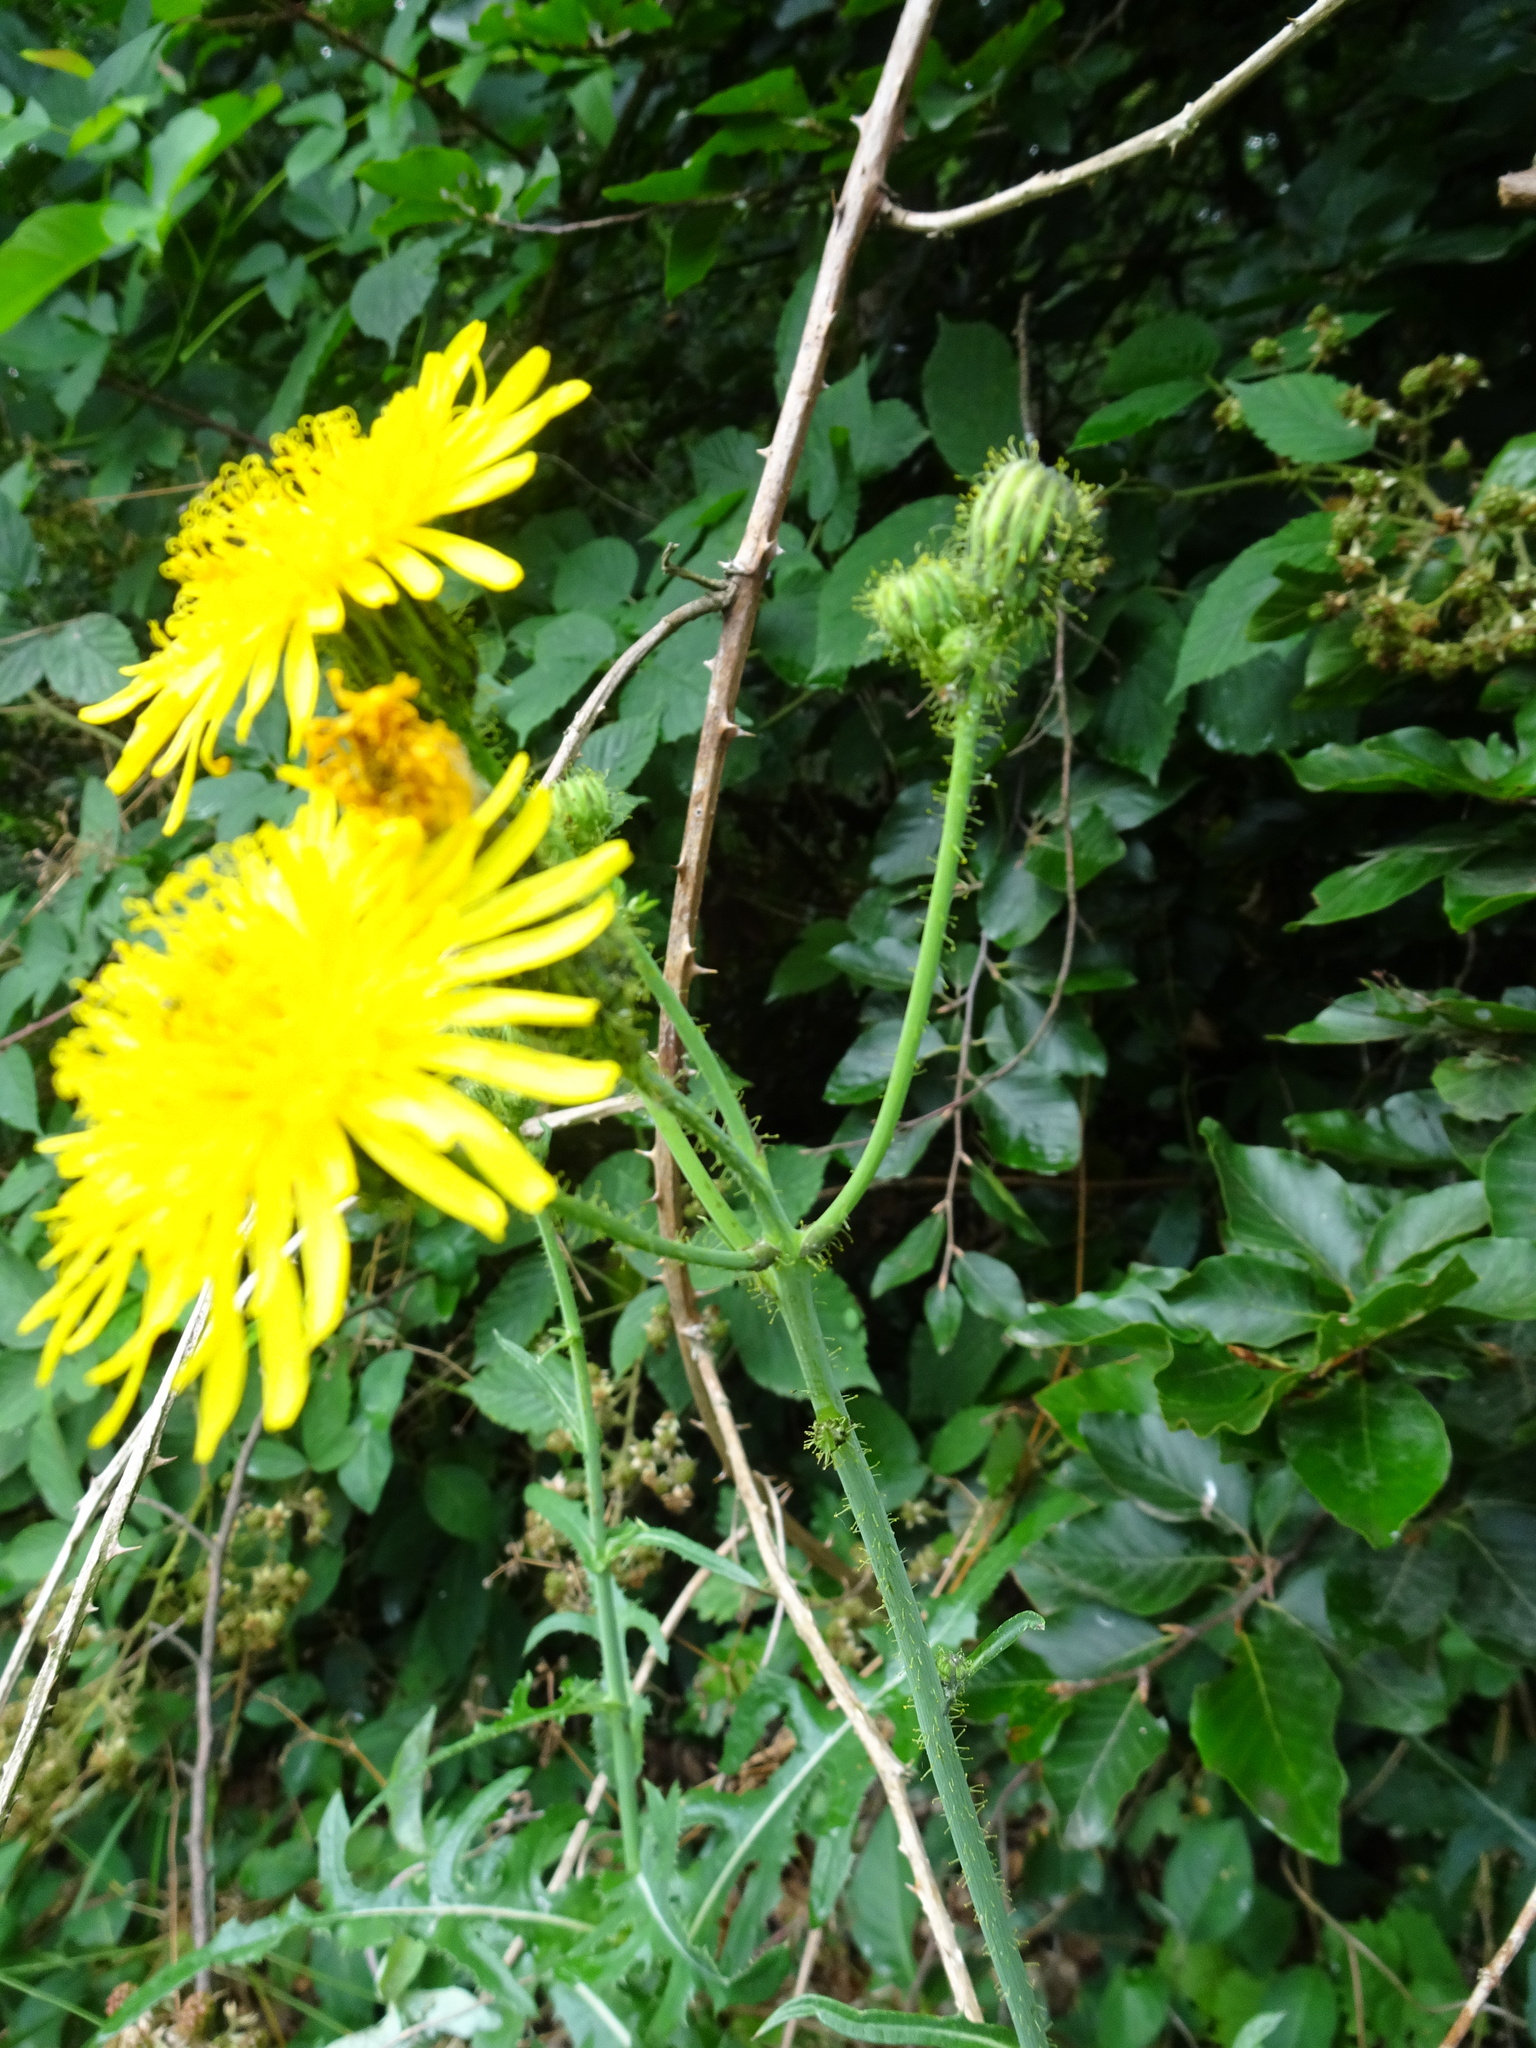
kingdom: Plantae
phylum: Tracheophyta
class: Magnoliopsida
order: Asterales
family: Asteraceae
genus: Sonchus
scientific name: Sonchus arvensis
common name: Perennial sow-thistle
